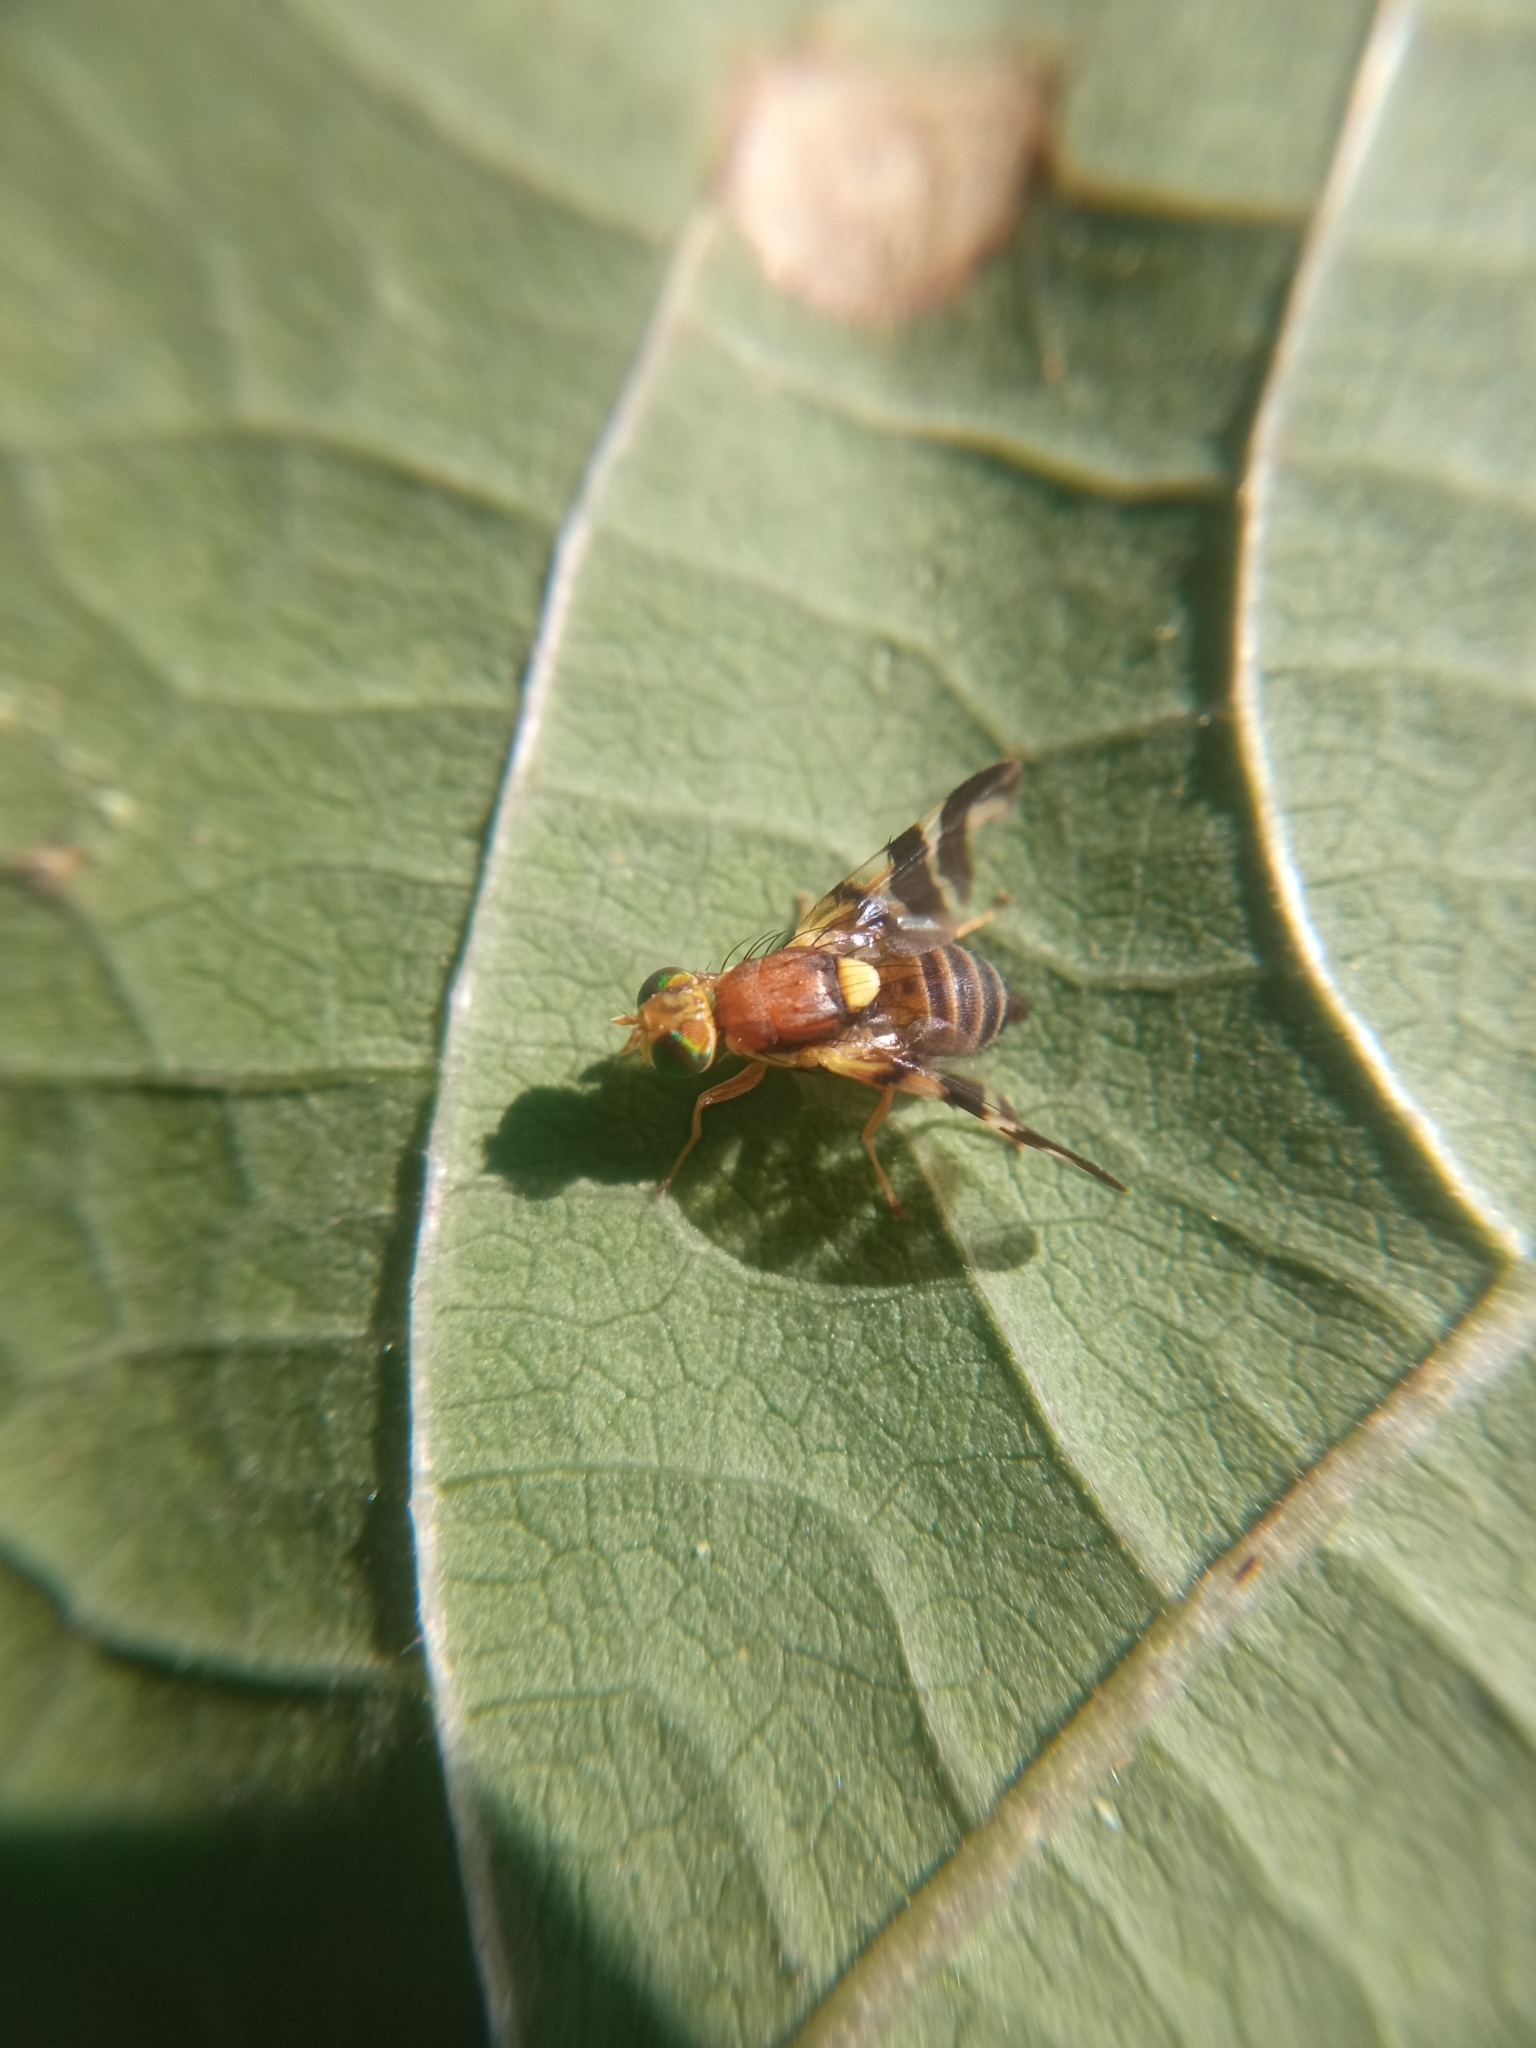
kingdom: Animalia
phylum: Arthropoda
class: Insecta
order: Diptera
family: Tephritidae
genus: Rhagoletis
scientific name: Rhagoletis completa
